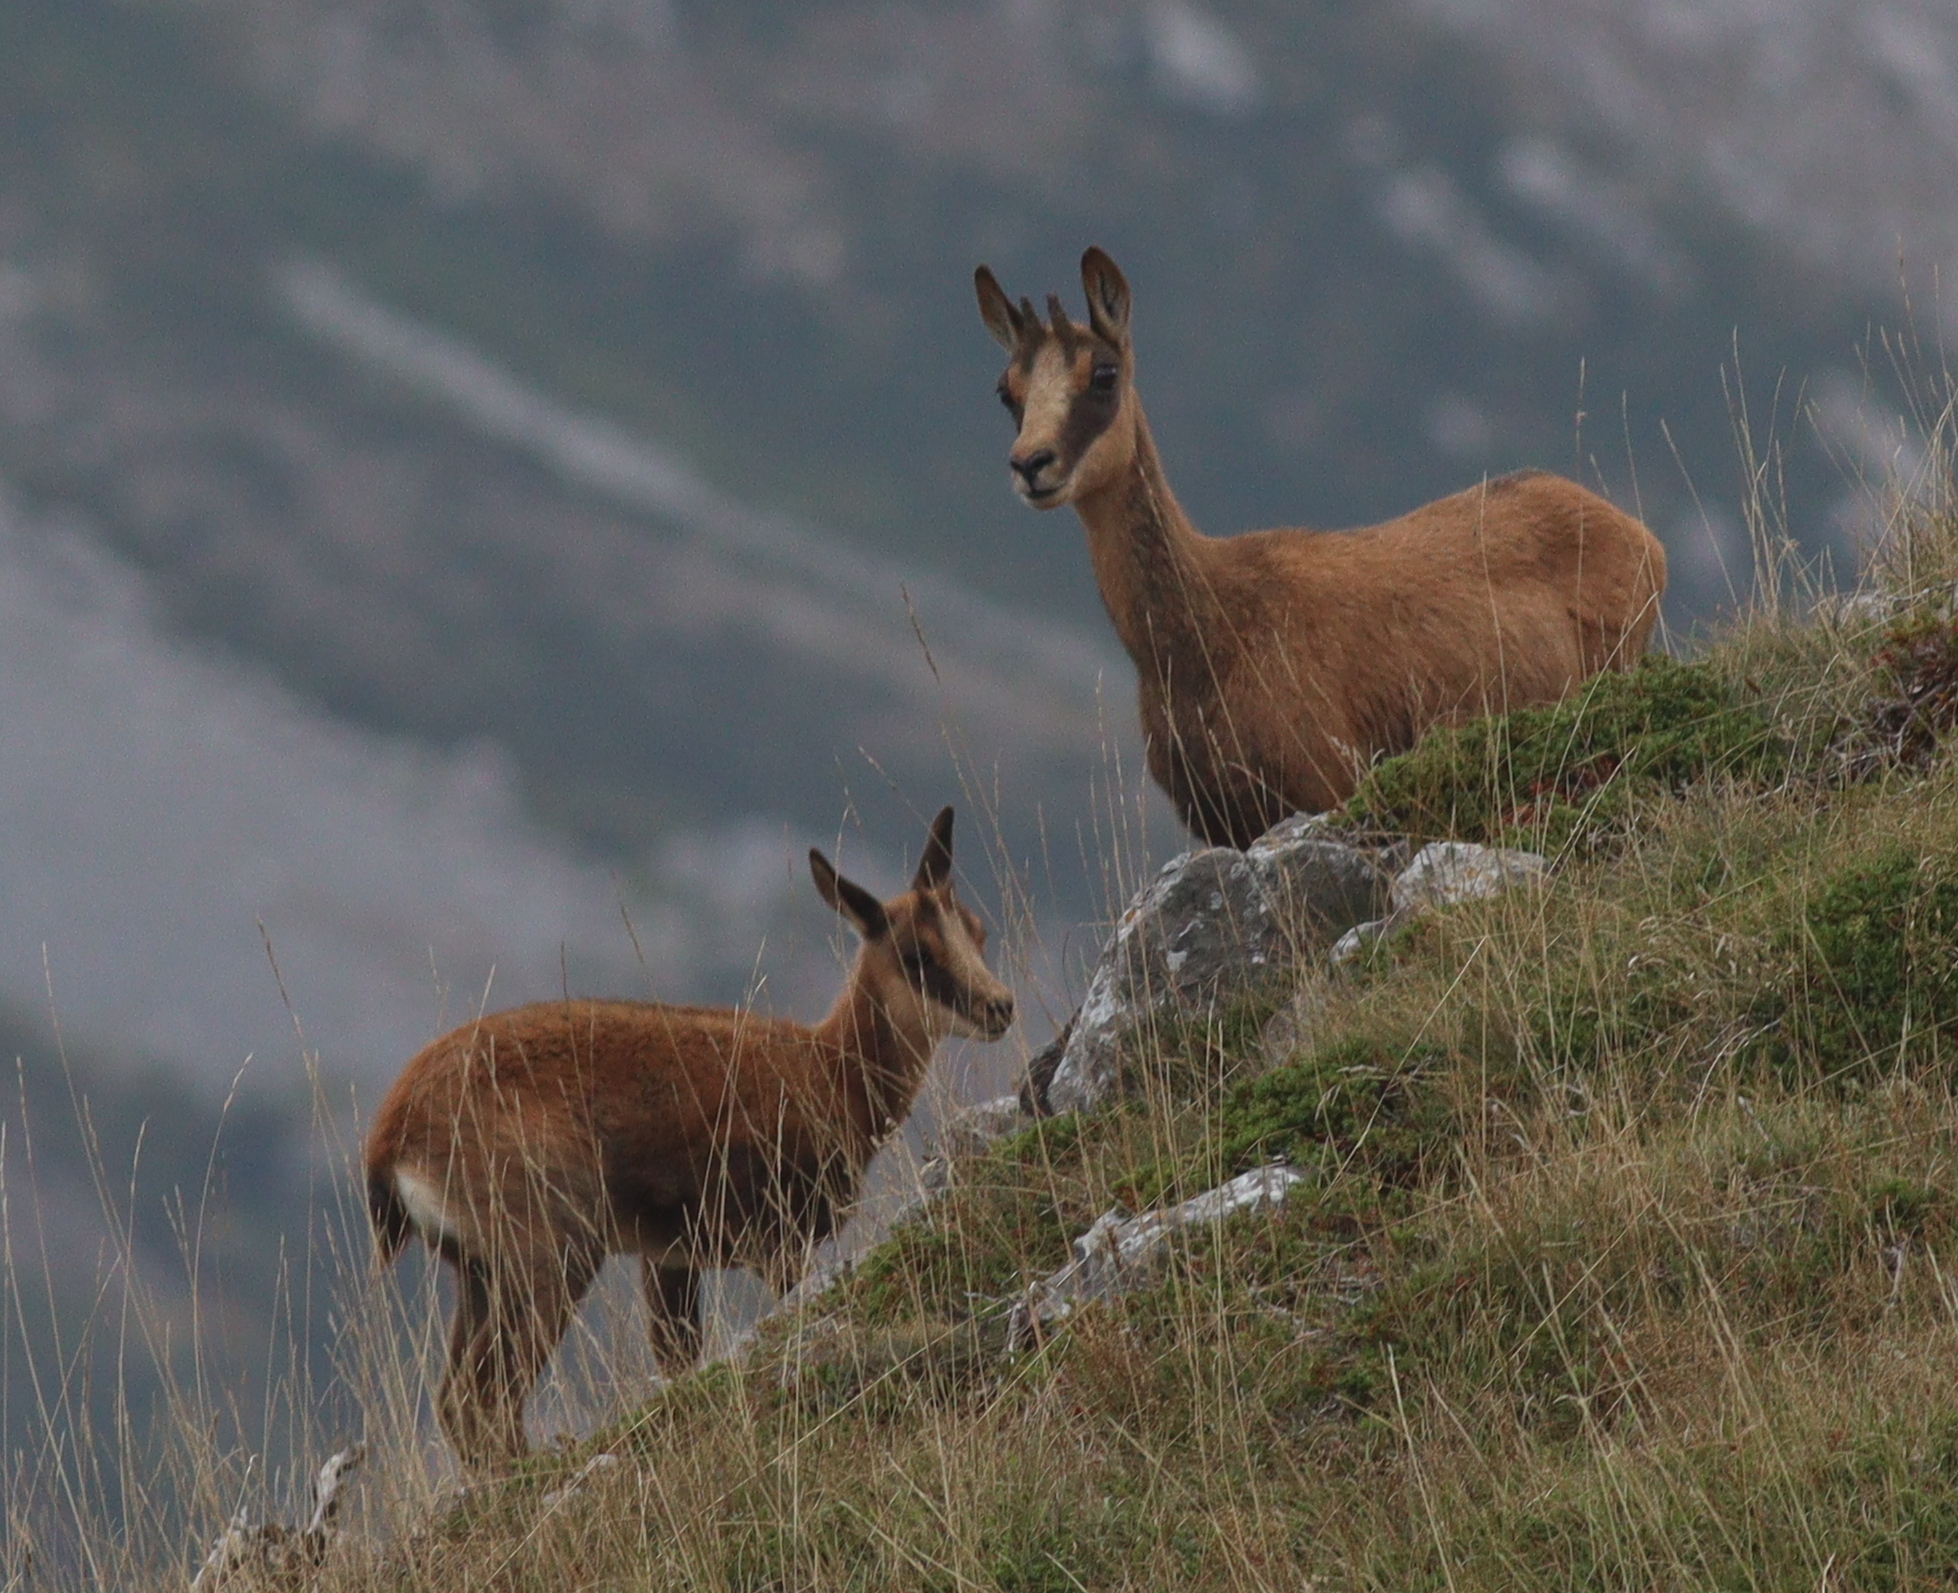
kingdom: Animalia
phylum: Chordata
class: Mammalia
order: Artiodactyla
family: Bovidae
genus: Rupicapra
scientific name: Rupicapra pyrenaica
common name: Pyrenean chamois
